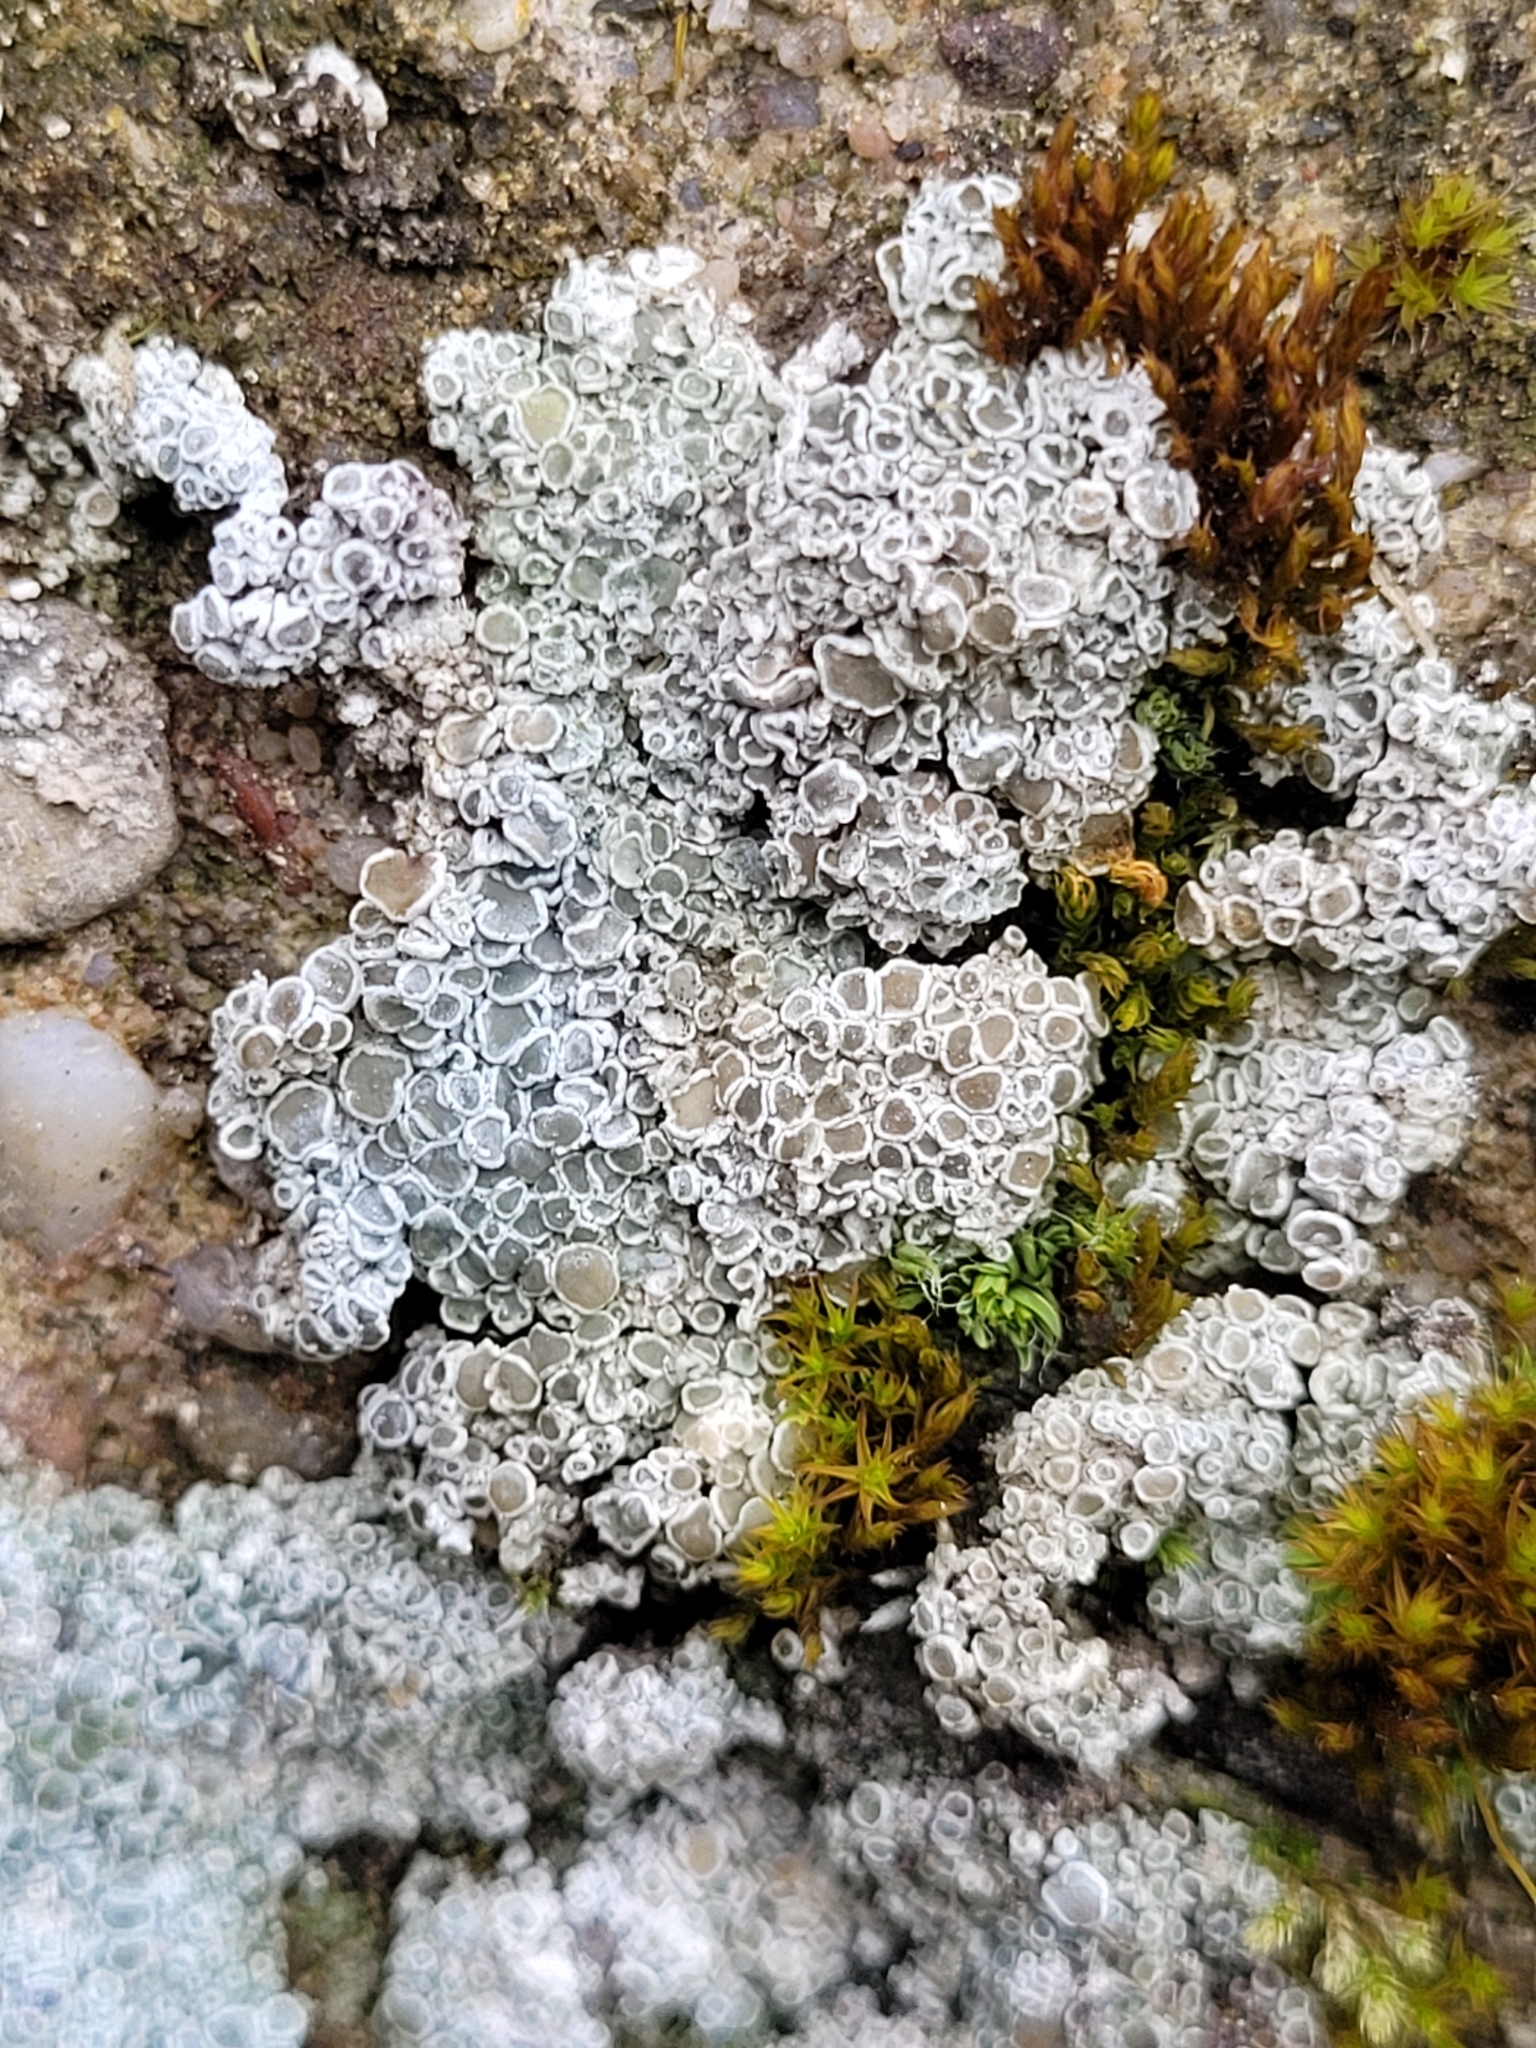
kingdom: Fungi
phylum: Ascomycota
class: Lecanoromycetes
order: Lecanorales
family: Lecanoraceae
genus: Polyozosia
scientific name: Polyozosia albescens
